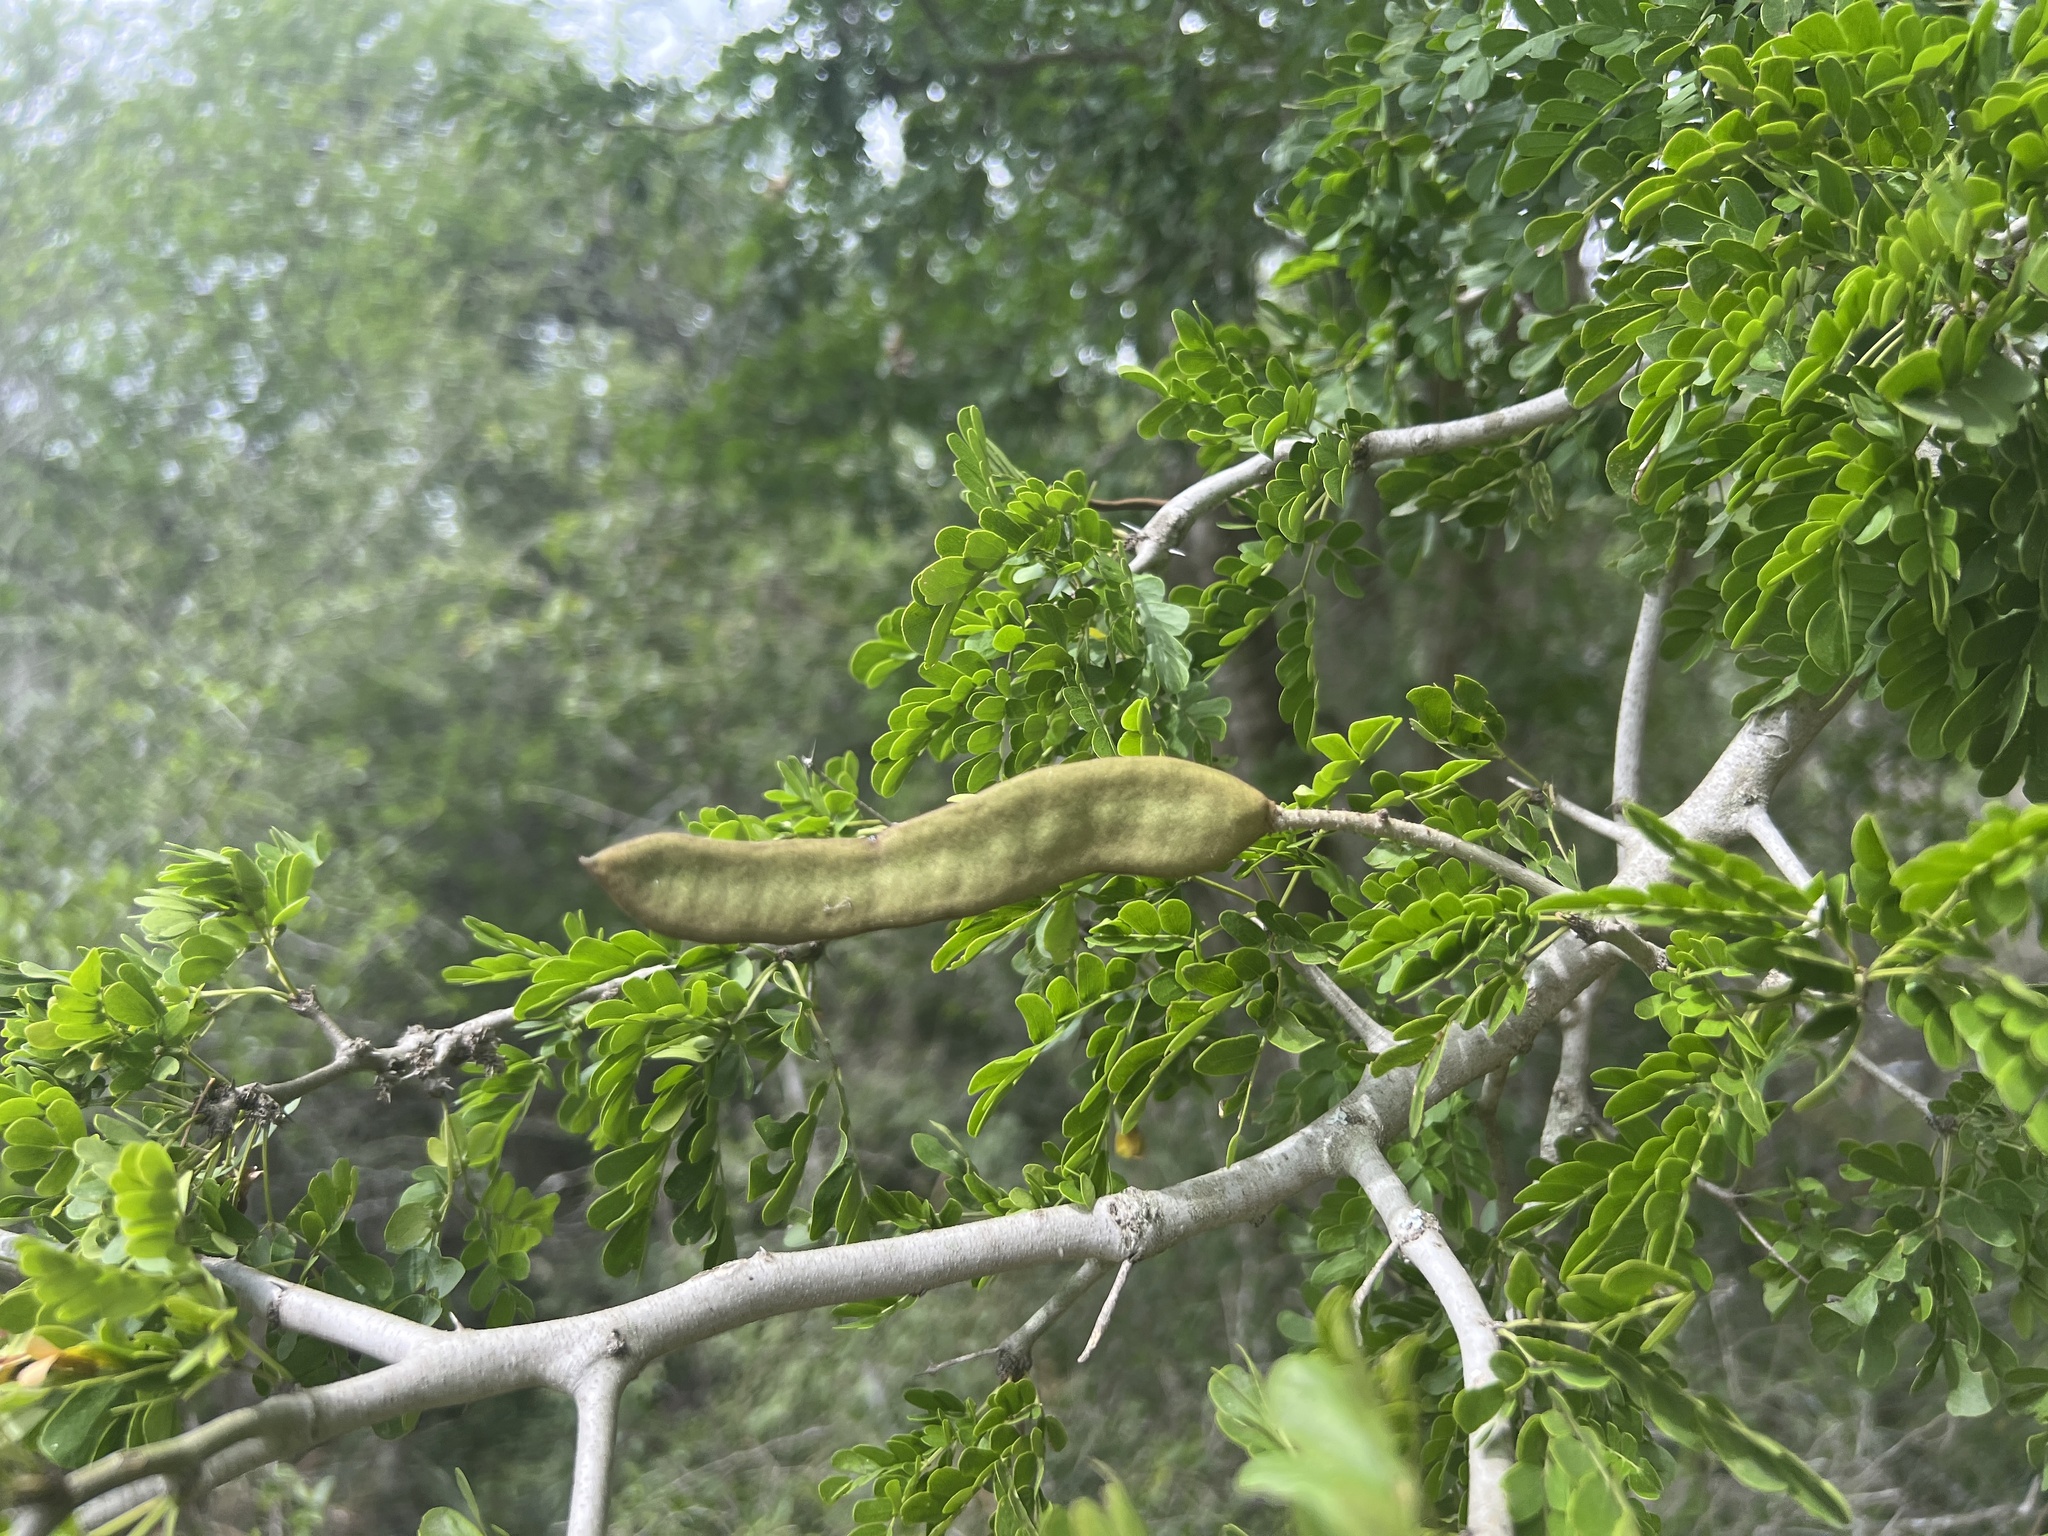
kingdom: Plantae
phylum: Tracheophyta
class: Magnoliopsida
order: Fabales
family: Fabaceae
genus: Ebenopsis
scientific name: Ebenopsis ebano
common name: Ebony blackbead
